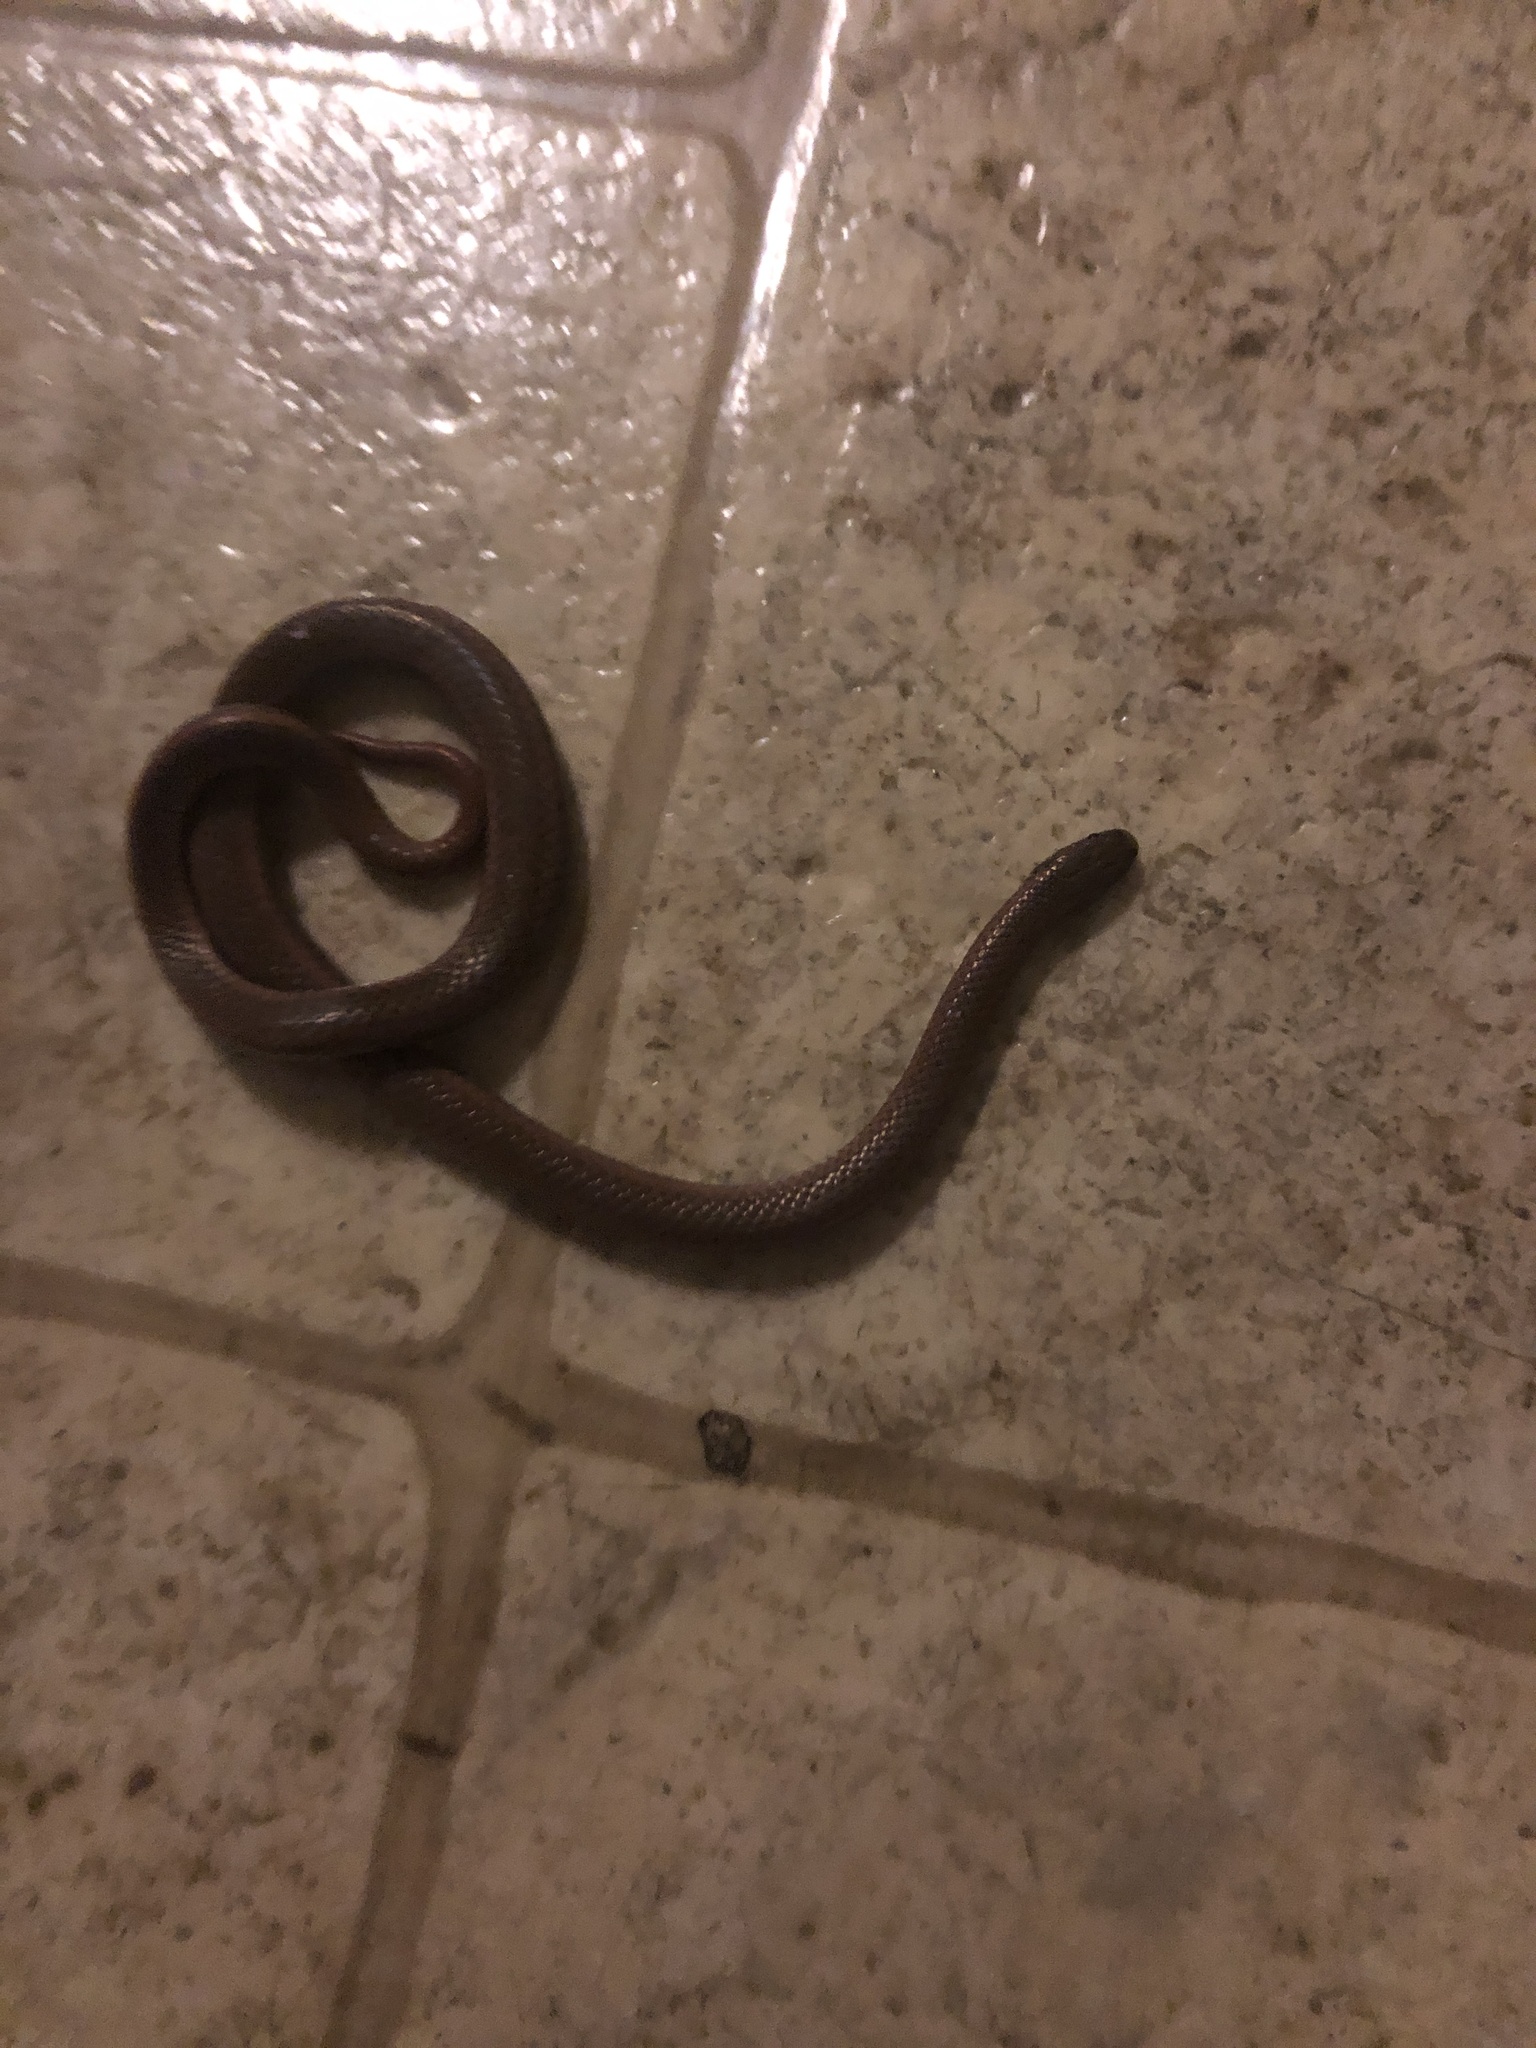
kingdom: Animalia
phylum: Chordata
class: Squamata
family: Colubridae
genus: Contia
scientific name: Contia tenuis
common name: Sharptail snake
